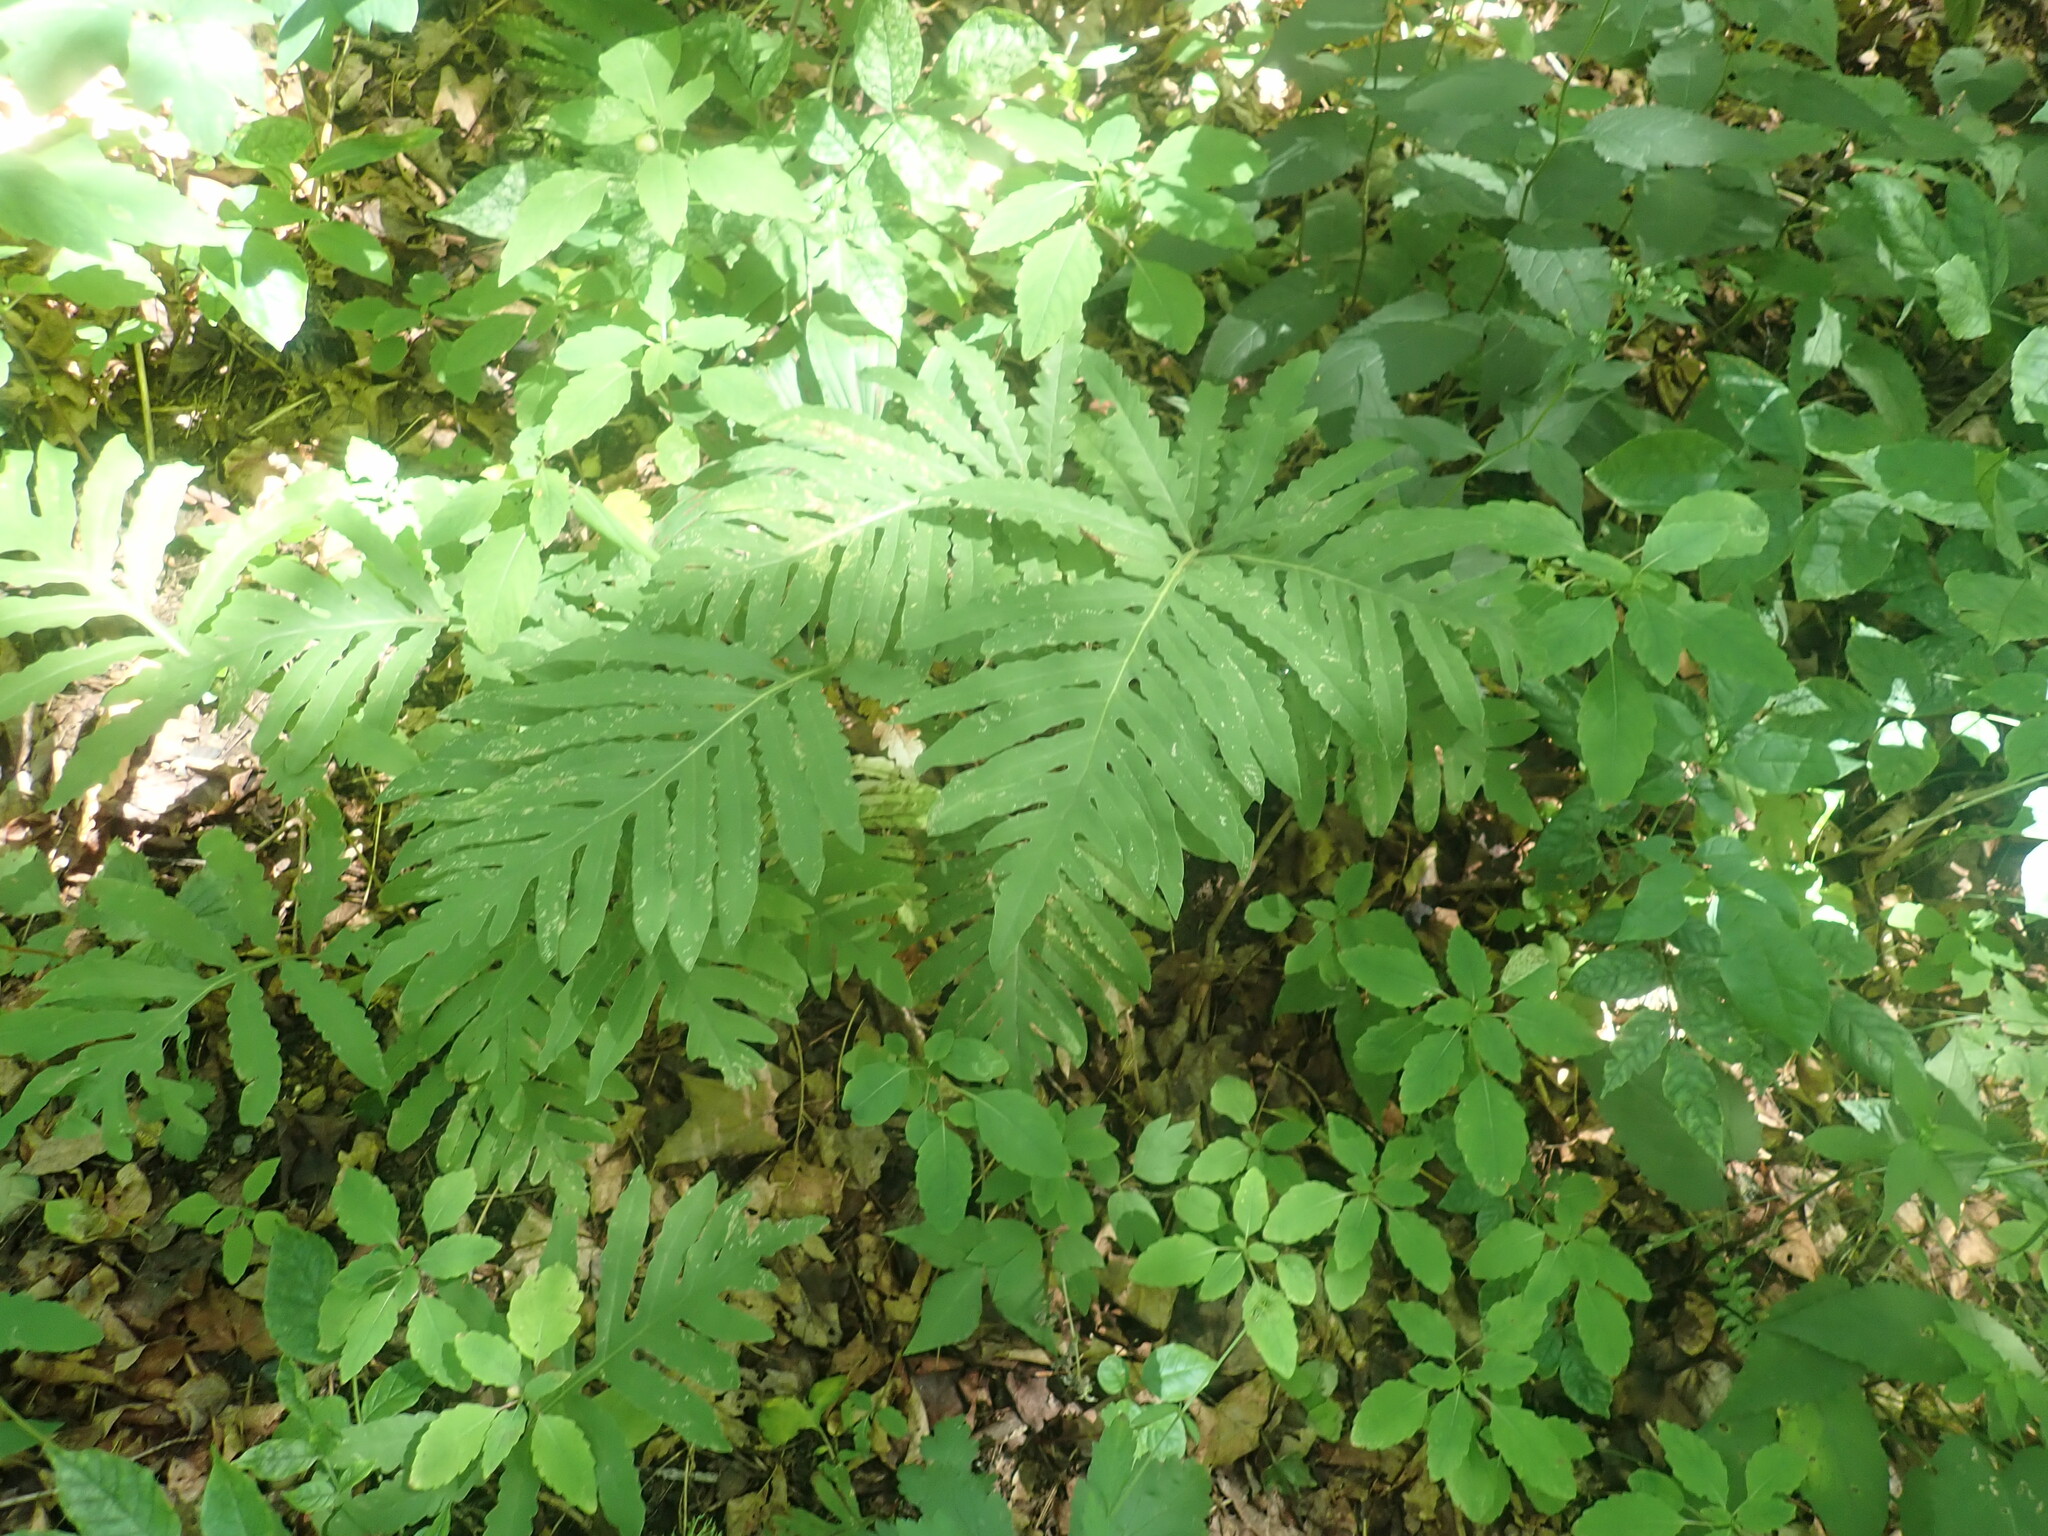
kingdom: Plantae
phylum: Tracheophyta
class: Polypodiopsida
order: Polypodiales
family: Onocleaceae
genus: Onoclea
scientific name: Onoclea sensibilis
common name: Sensitive fern
